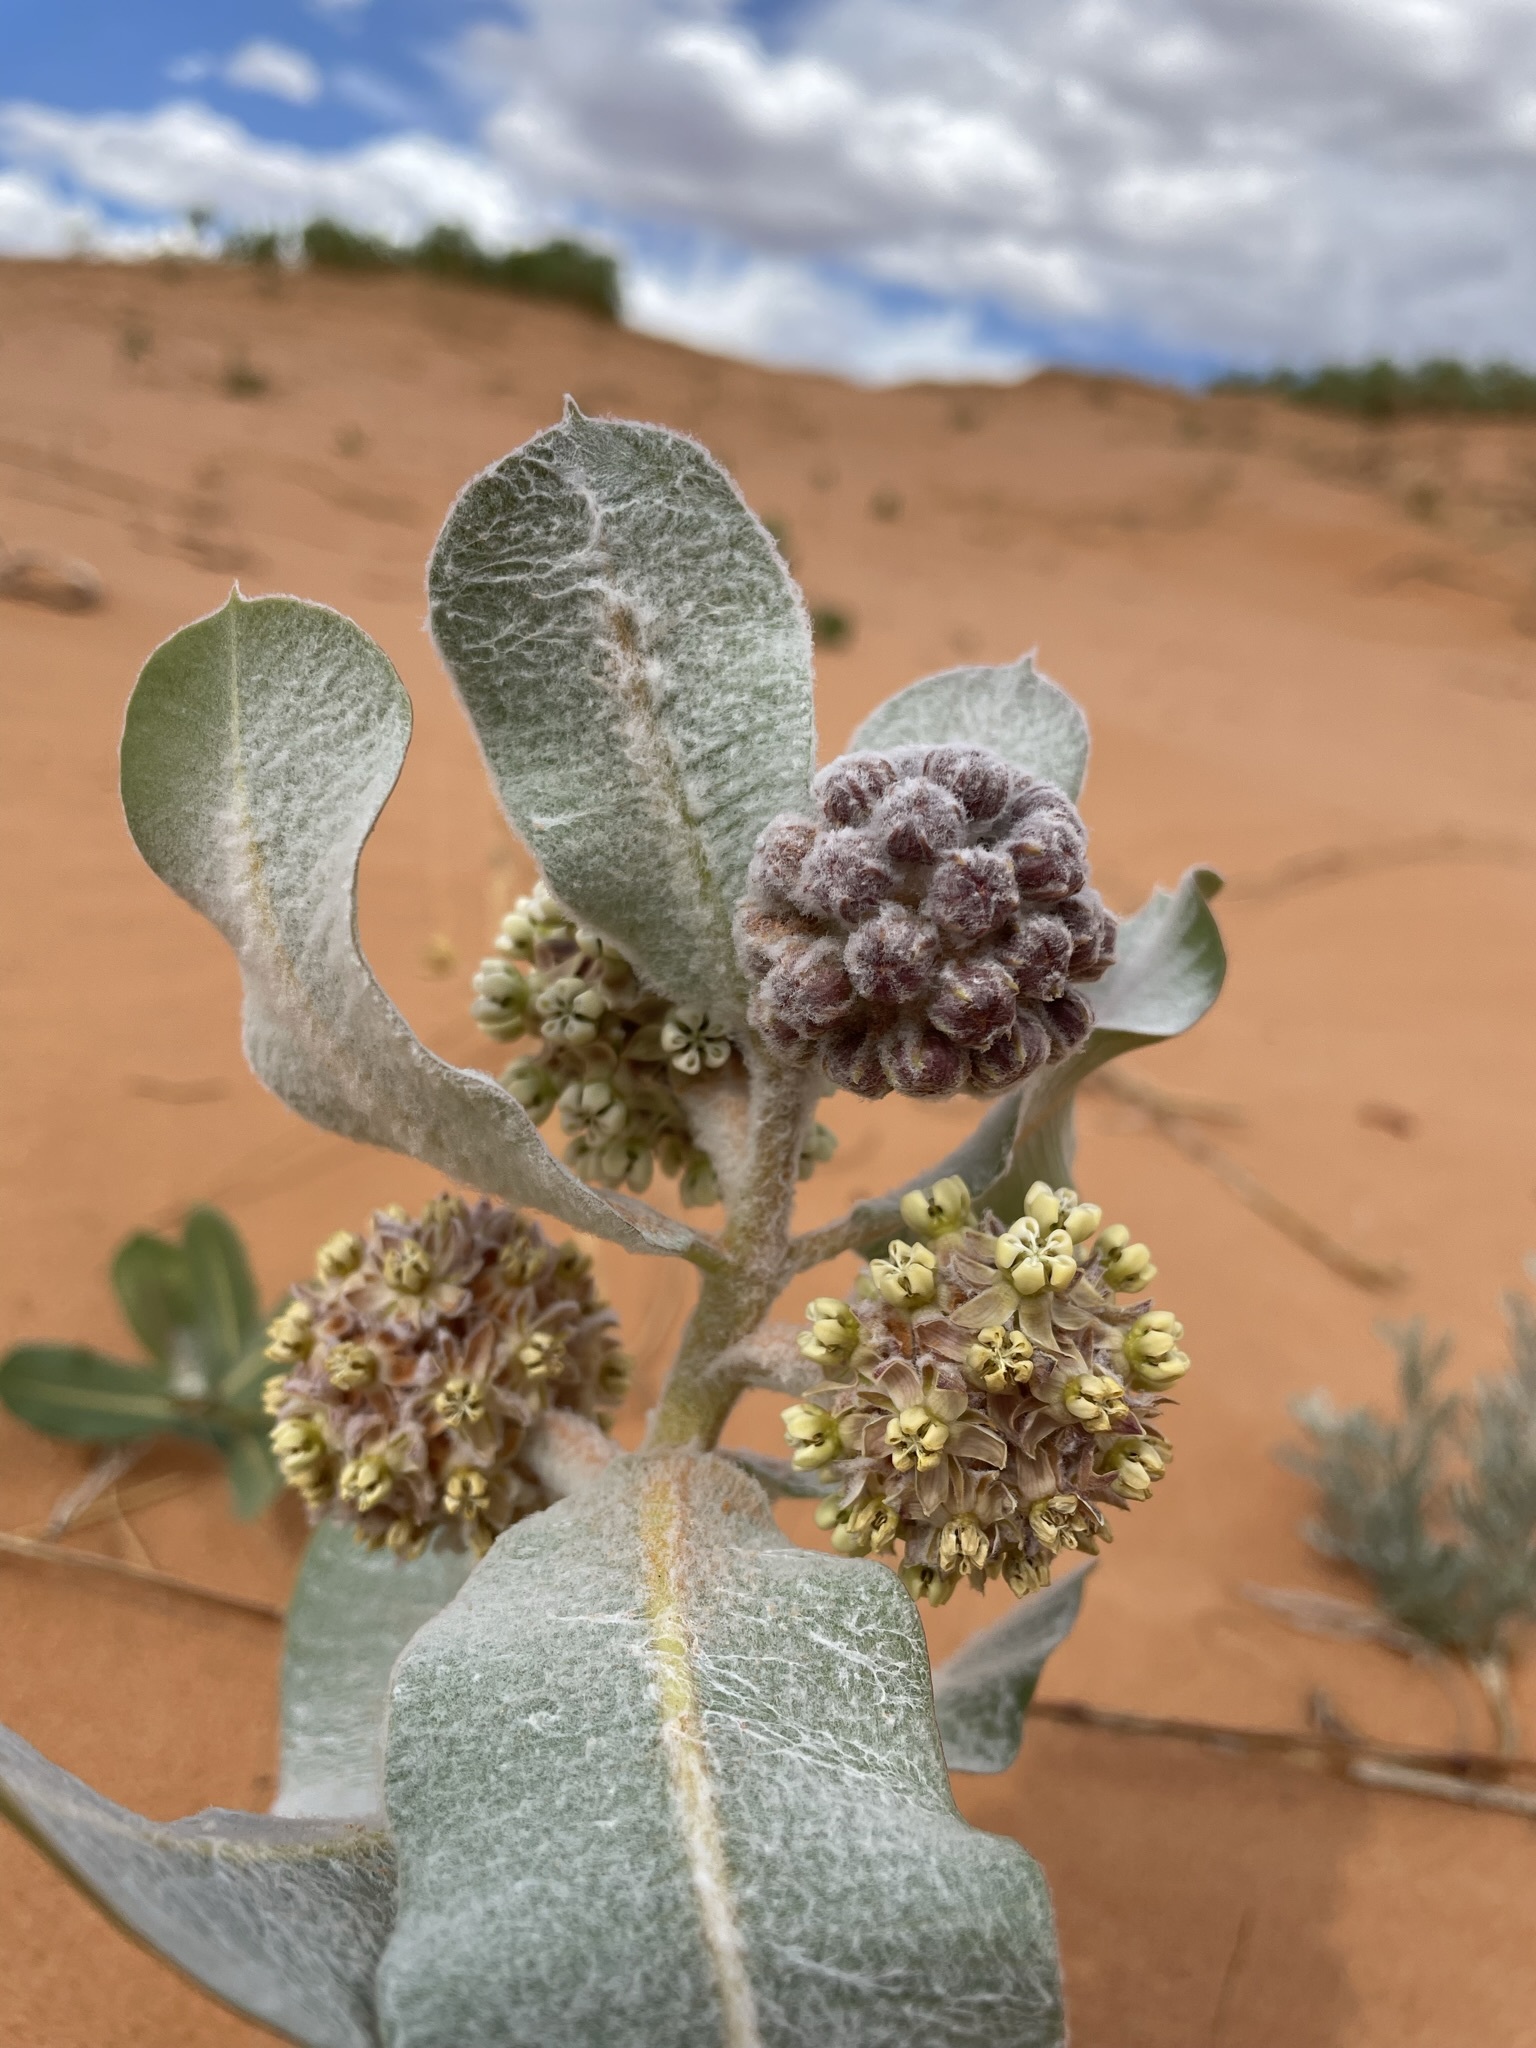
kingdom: Plantae
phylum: Tracheophyta
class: Magnoliopsida
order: Gentianales
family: Apocynaceae
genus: Asclepias
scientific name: Asclepias welshii
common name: Welsch's milkweed
